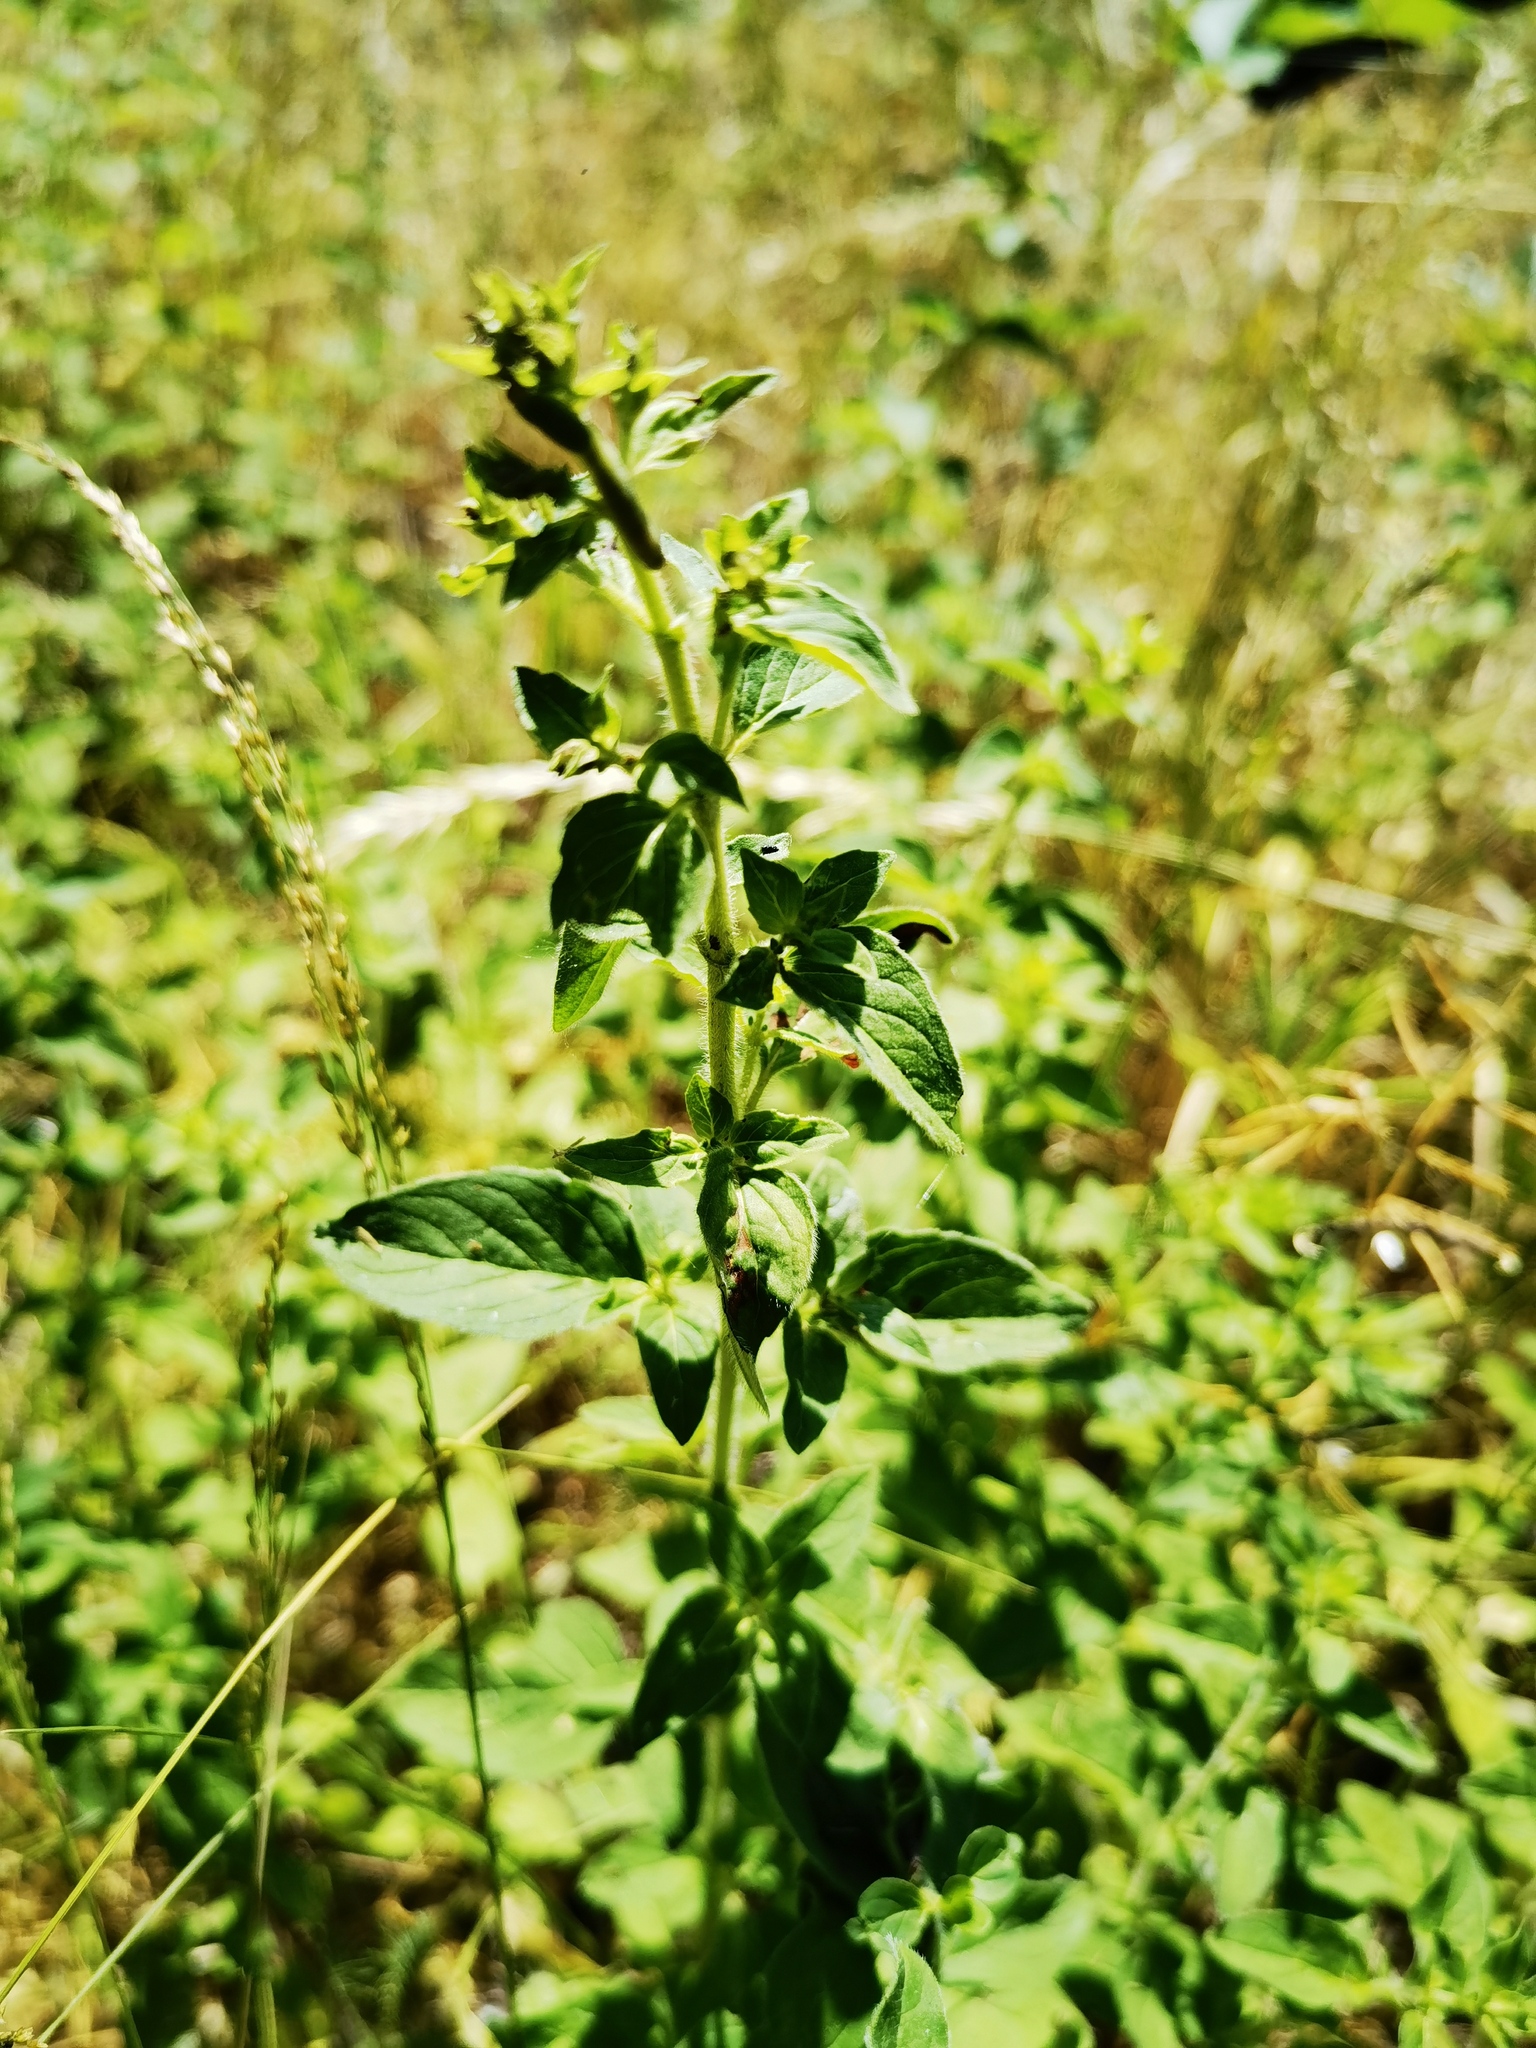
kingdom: Plantae
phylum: Tracheophyta
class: Magnoliopsida
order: Lamiales
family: Lamiaceae
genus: Origanum
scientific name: Origanum vulgare
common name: Wild marjoram
